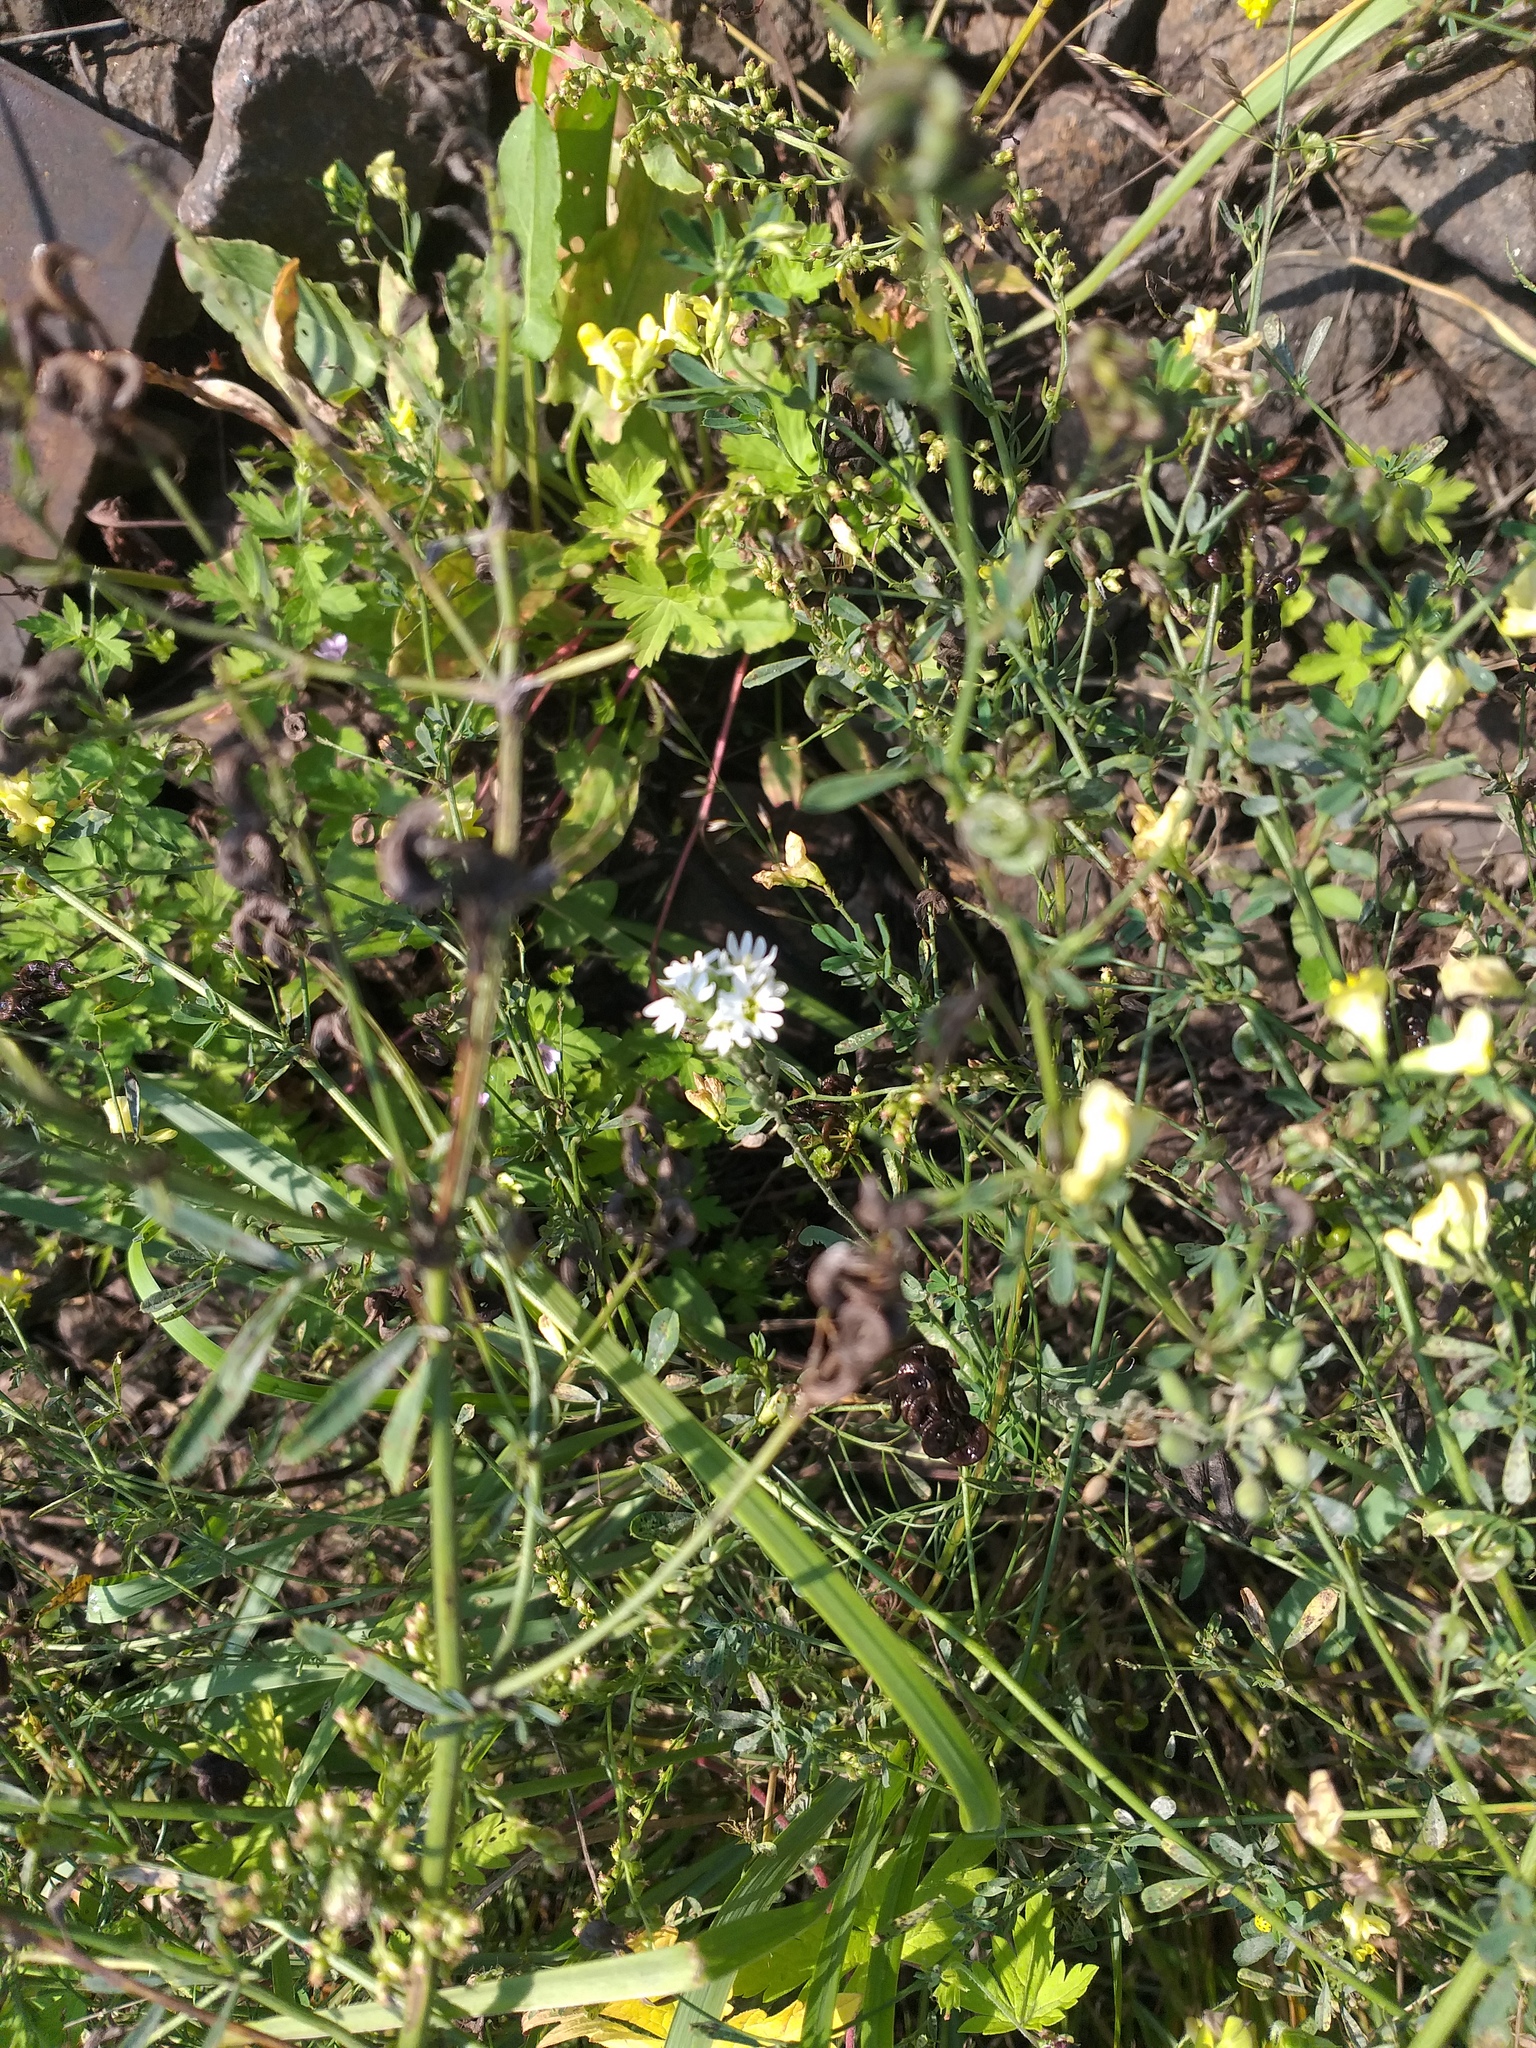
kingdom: Plantae
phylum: Tracheophyta
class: Magnoliopsida
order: Brassicales
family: Brassicaceae
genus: Berteroa
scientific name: Berteroa incana
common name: Hoary alison
